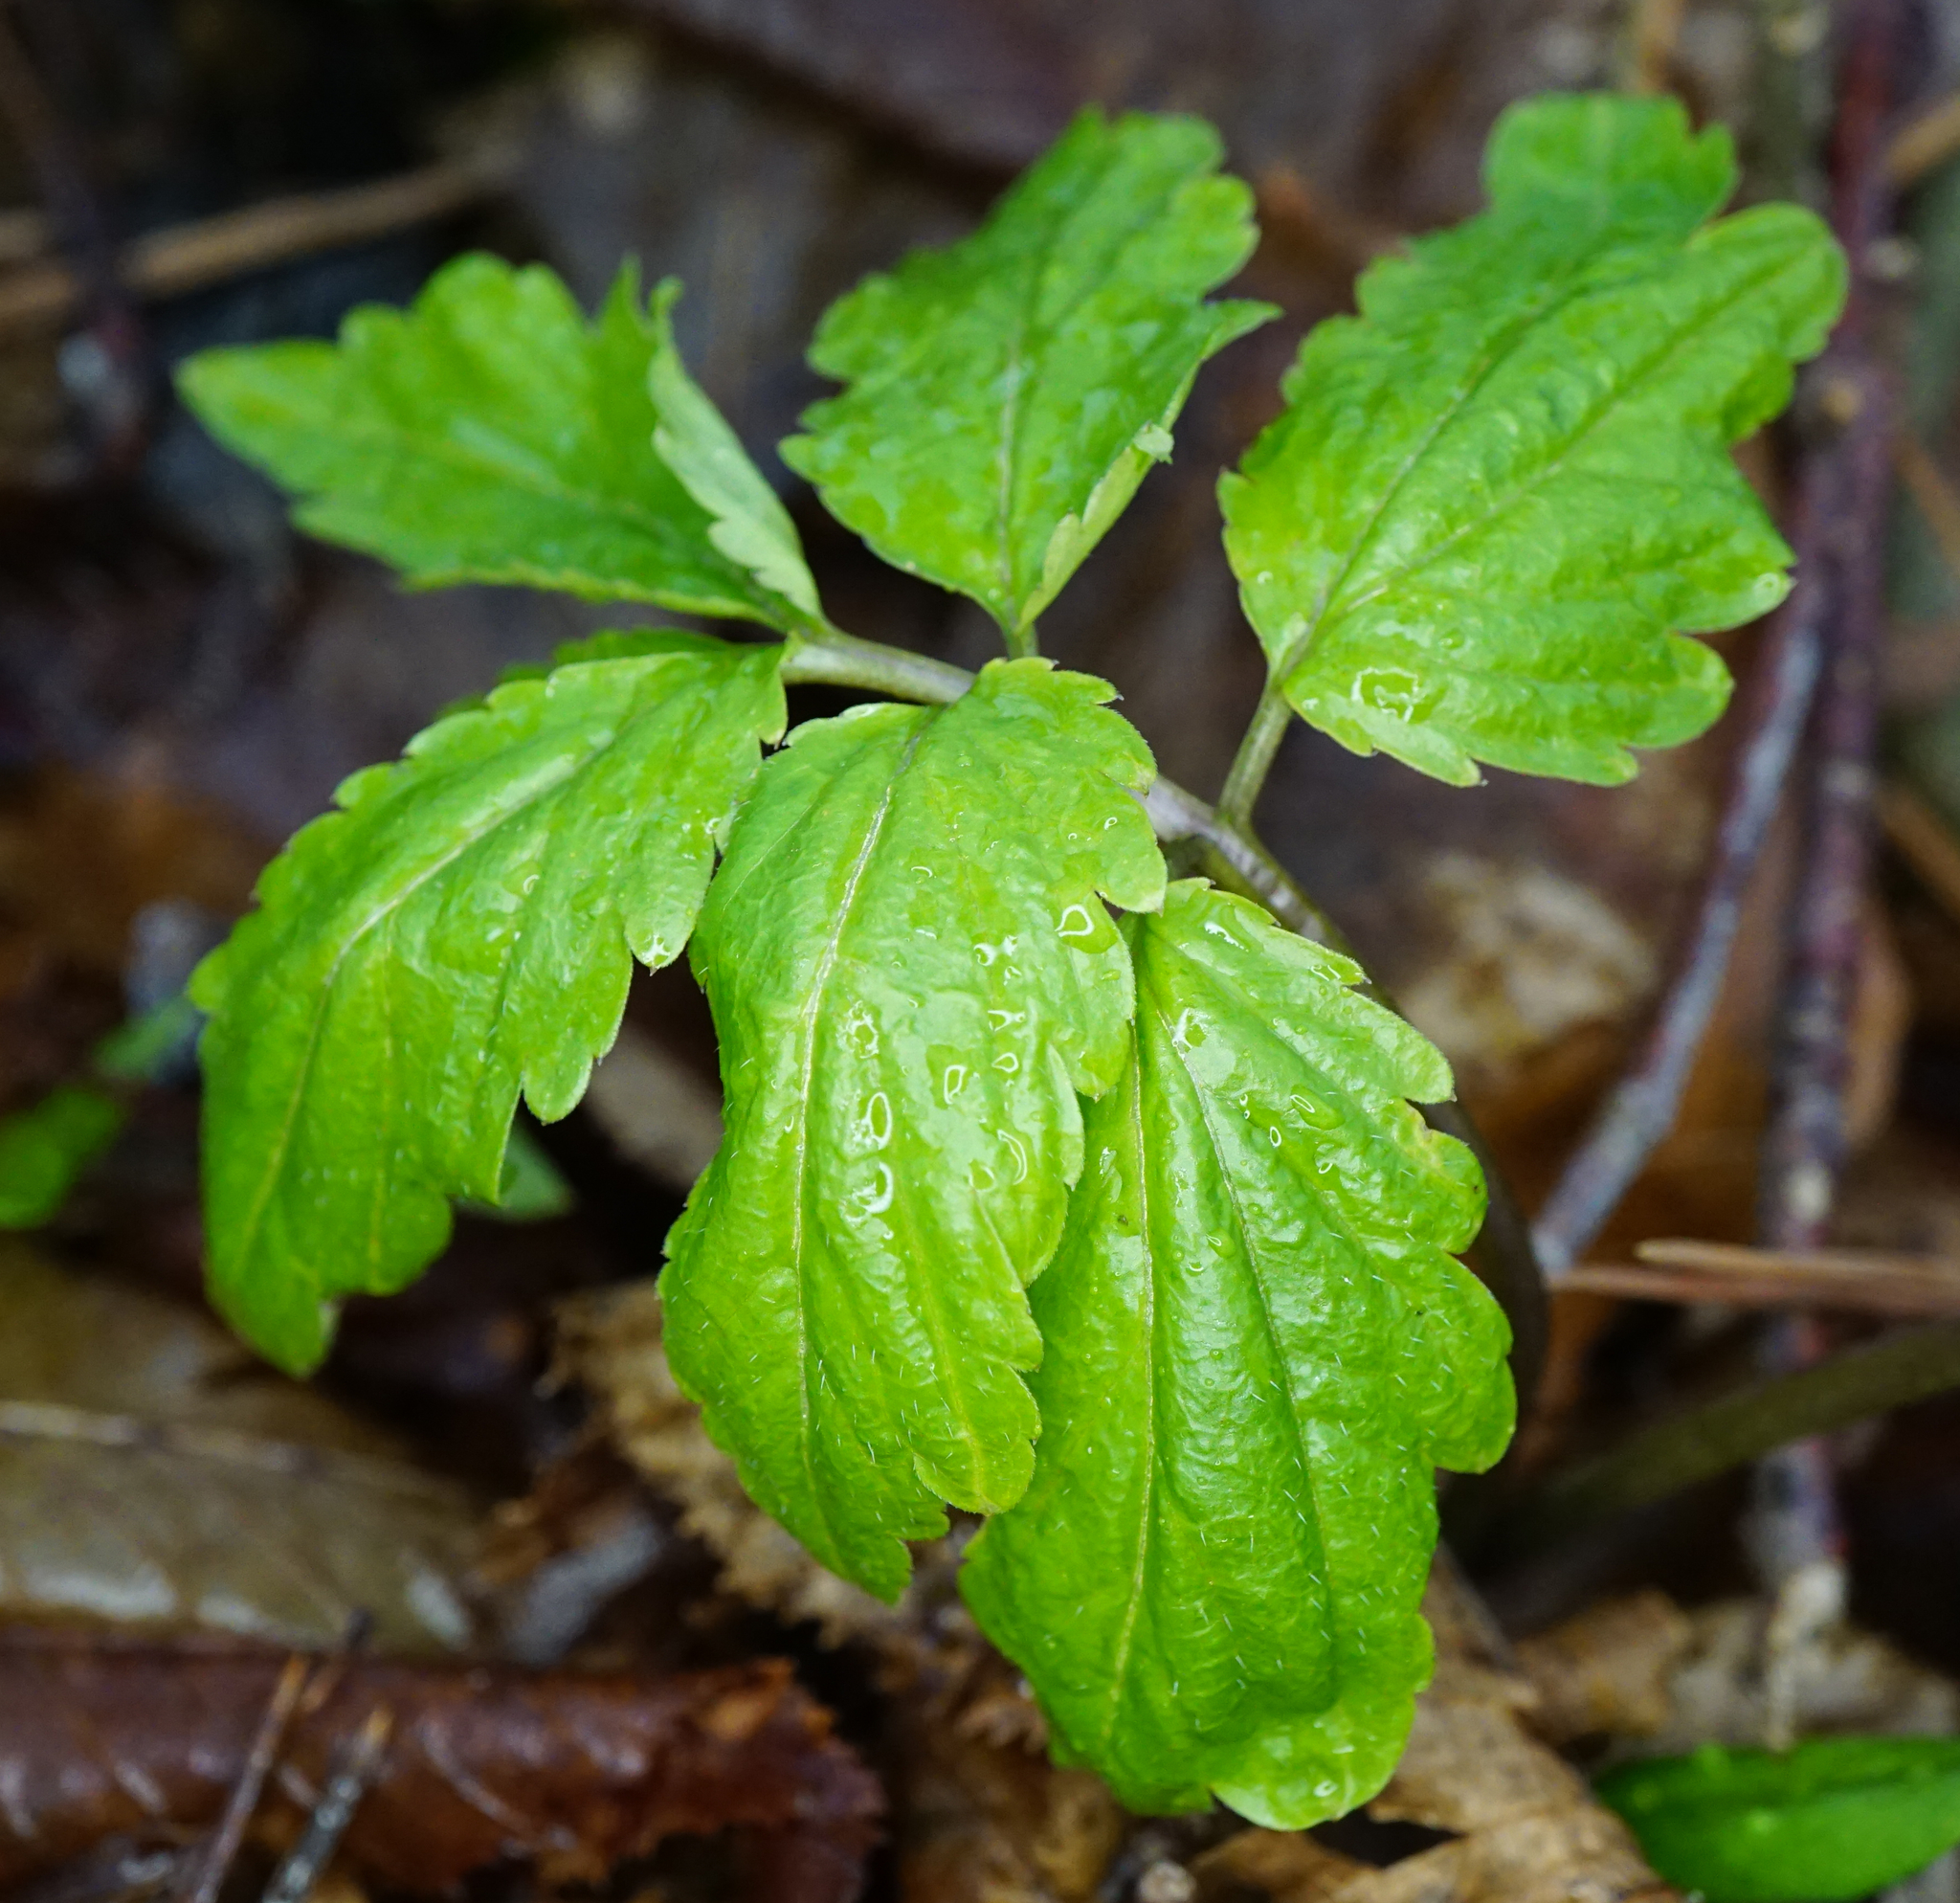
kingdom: Plantae
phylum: Tracheophyta
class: Magnoliopsida
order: Brassicales
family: Brassicaceae
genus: Cardamine
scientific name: Cardamine bulbifera
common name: Coralroot bittercress
